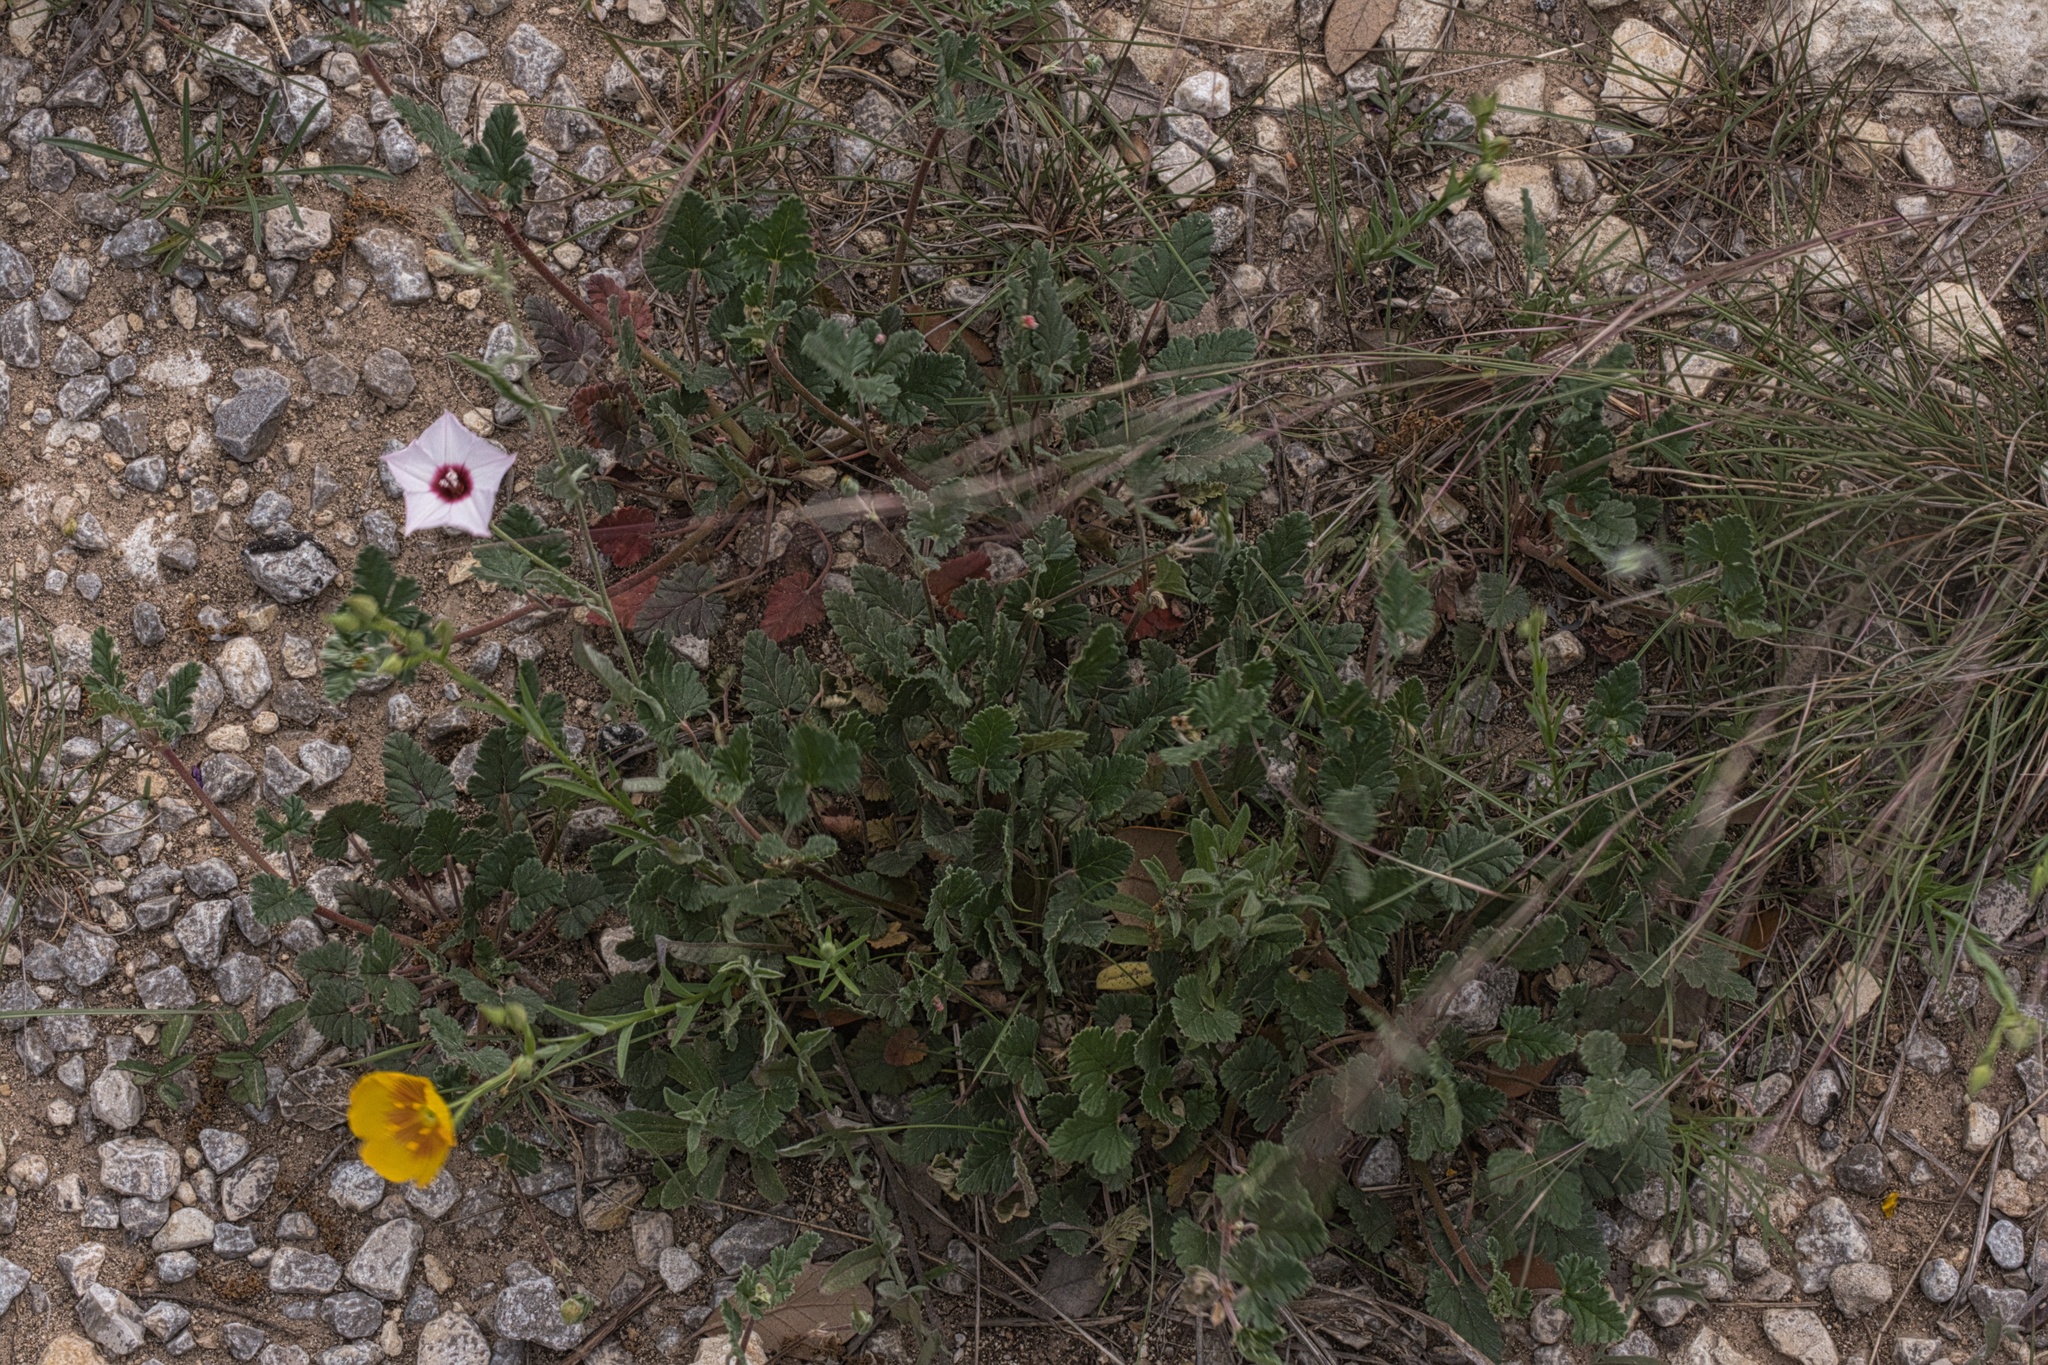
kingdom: Plantae
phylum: Tracheophyta
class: Magnoliopsida
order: Solanales
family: Convolvulaceae
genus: Convolvulus
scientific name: Convolvulus equitans
